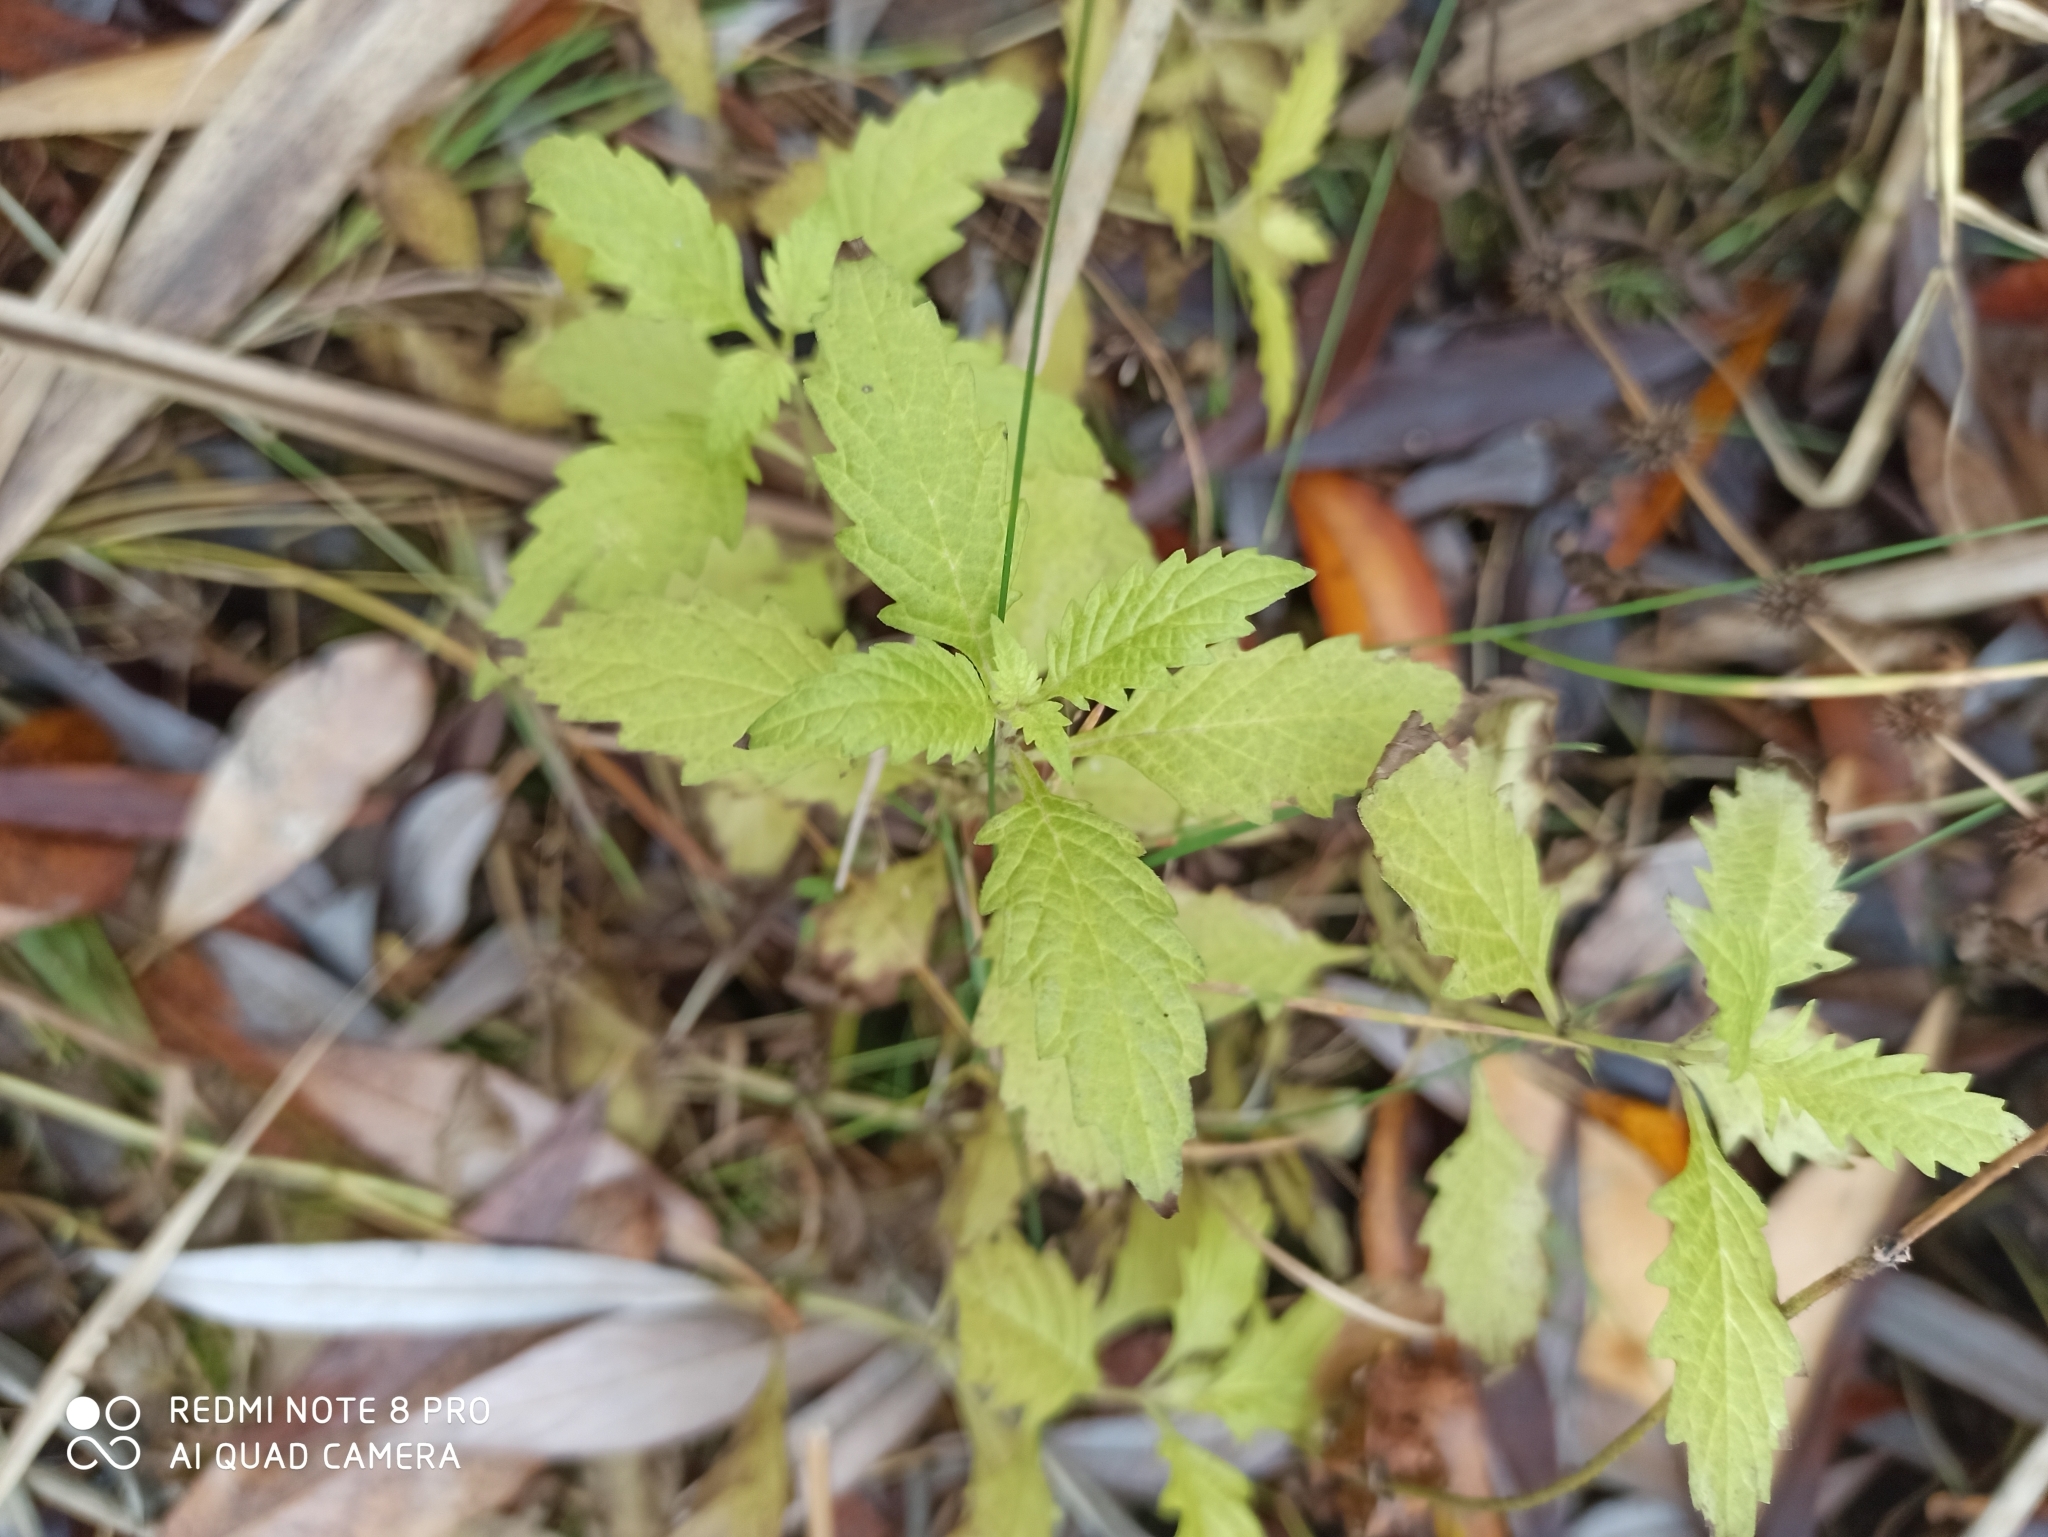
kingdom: Plantae
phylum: Tracheophyta
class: Magnoliopsida
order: Lamiales
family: Lamiaceae
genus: Lycopus
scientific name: Lycopus europaeus
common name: European bugleweed
